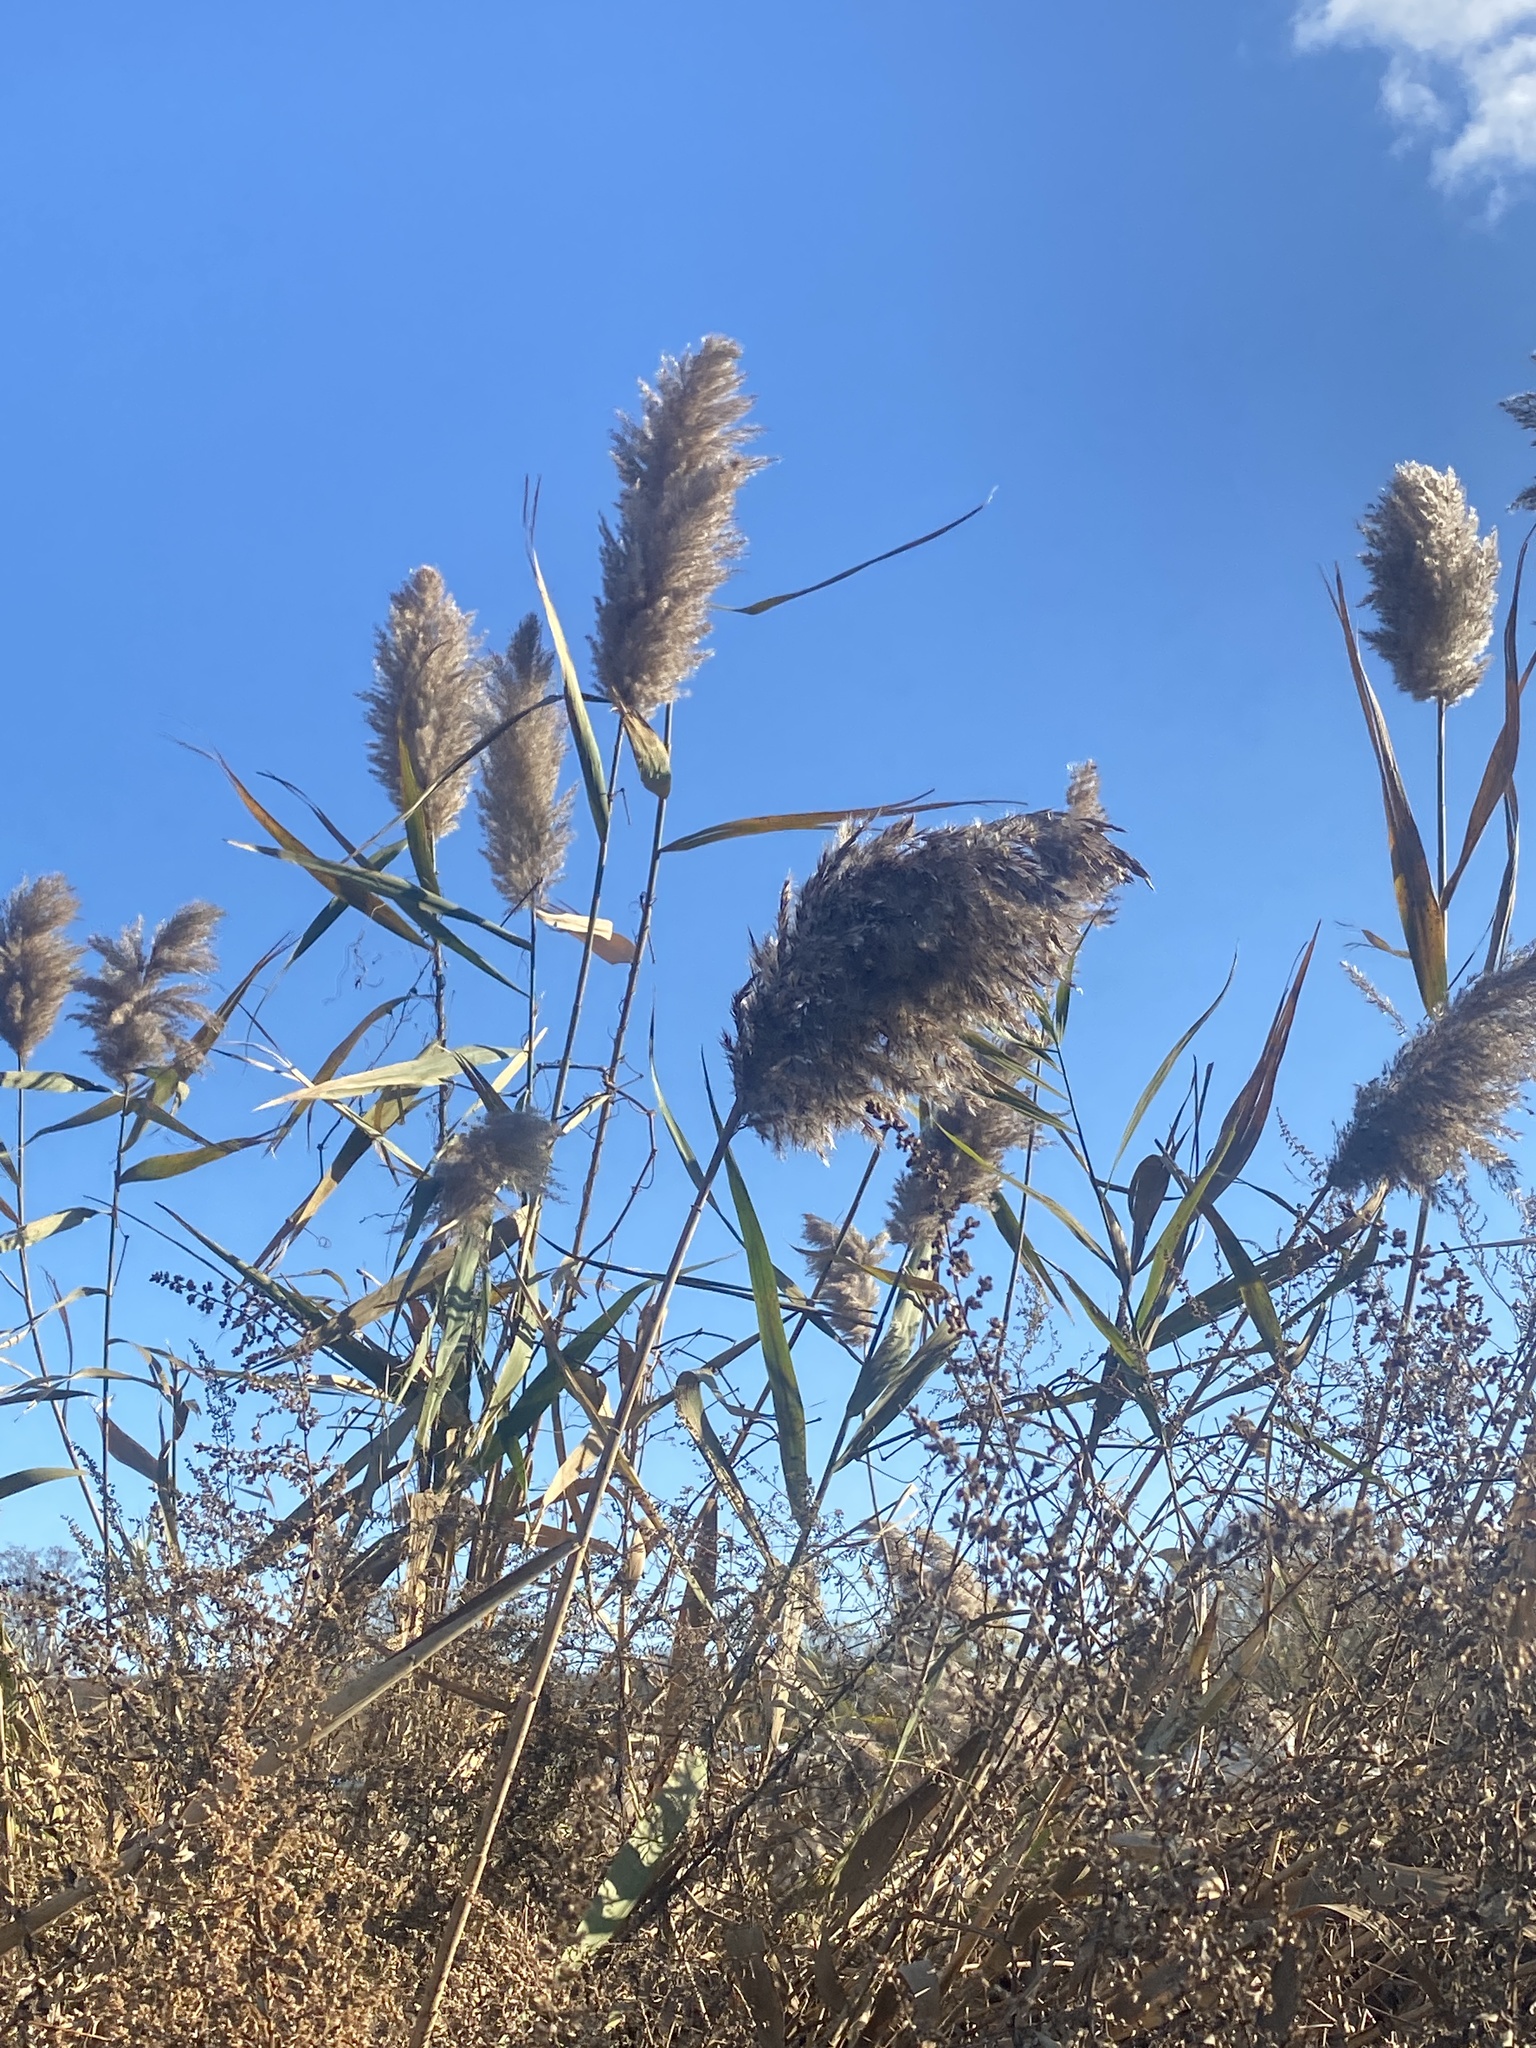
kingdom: Plantae
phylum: Tracheophyta
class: Liliopsida
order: Poales
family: Poaceae
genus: Phragmites
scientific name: Phragmites australis
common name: Common reed
